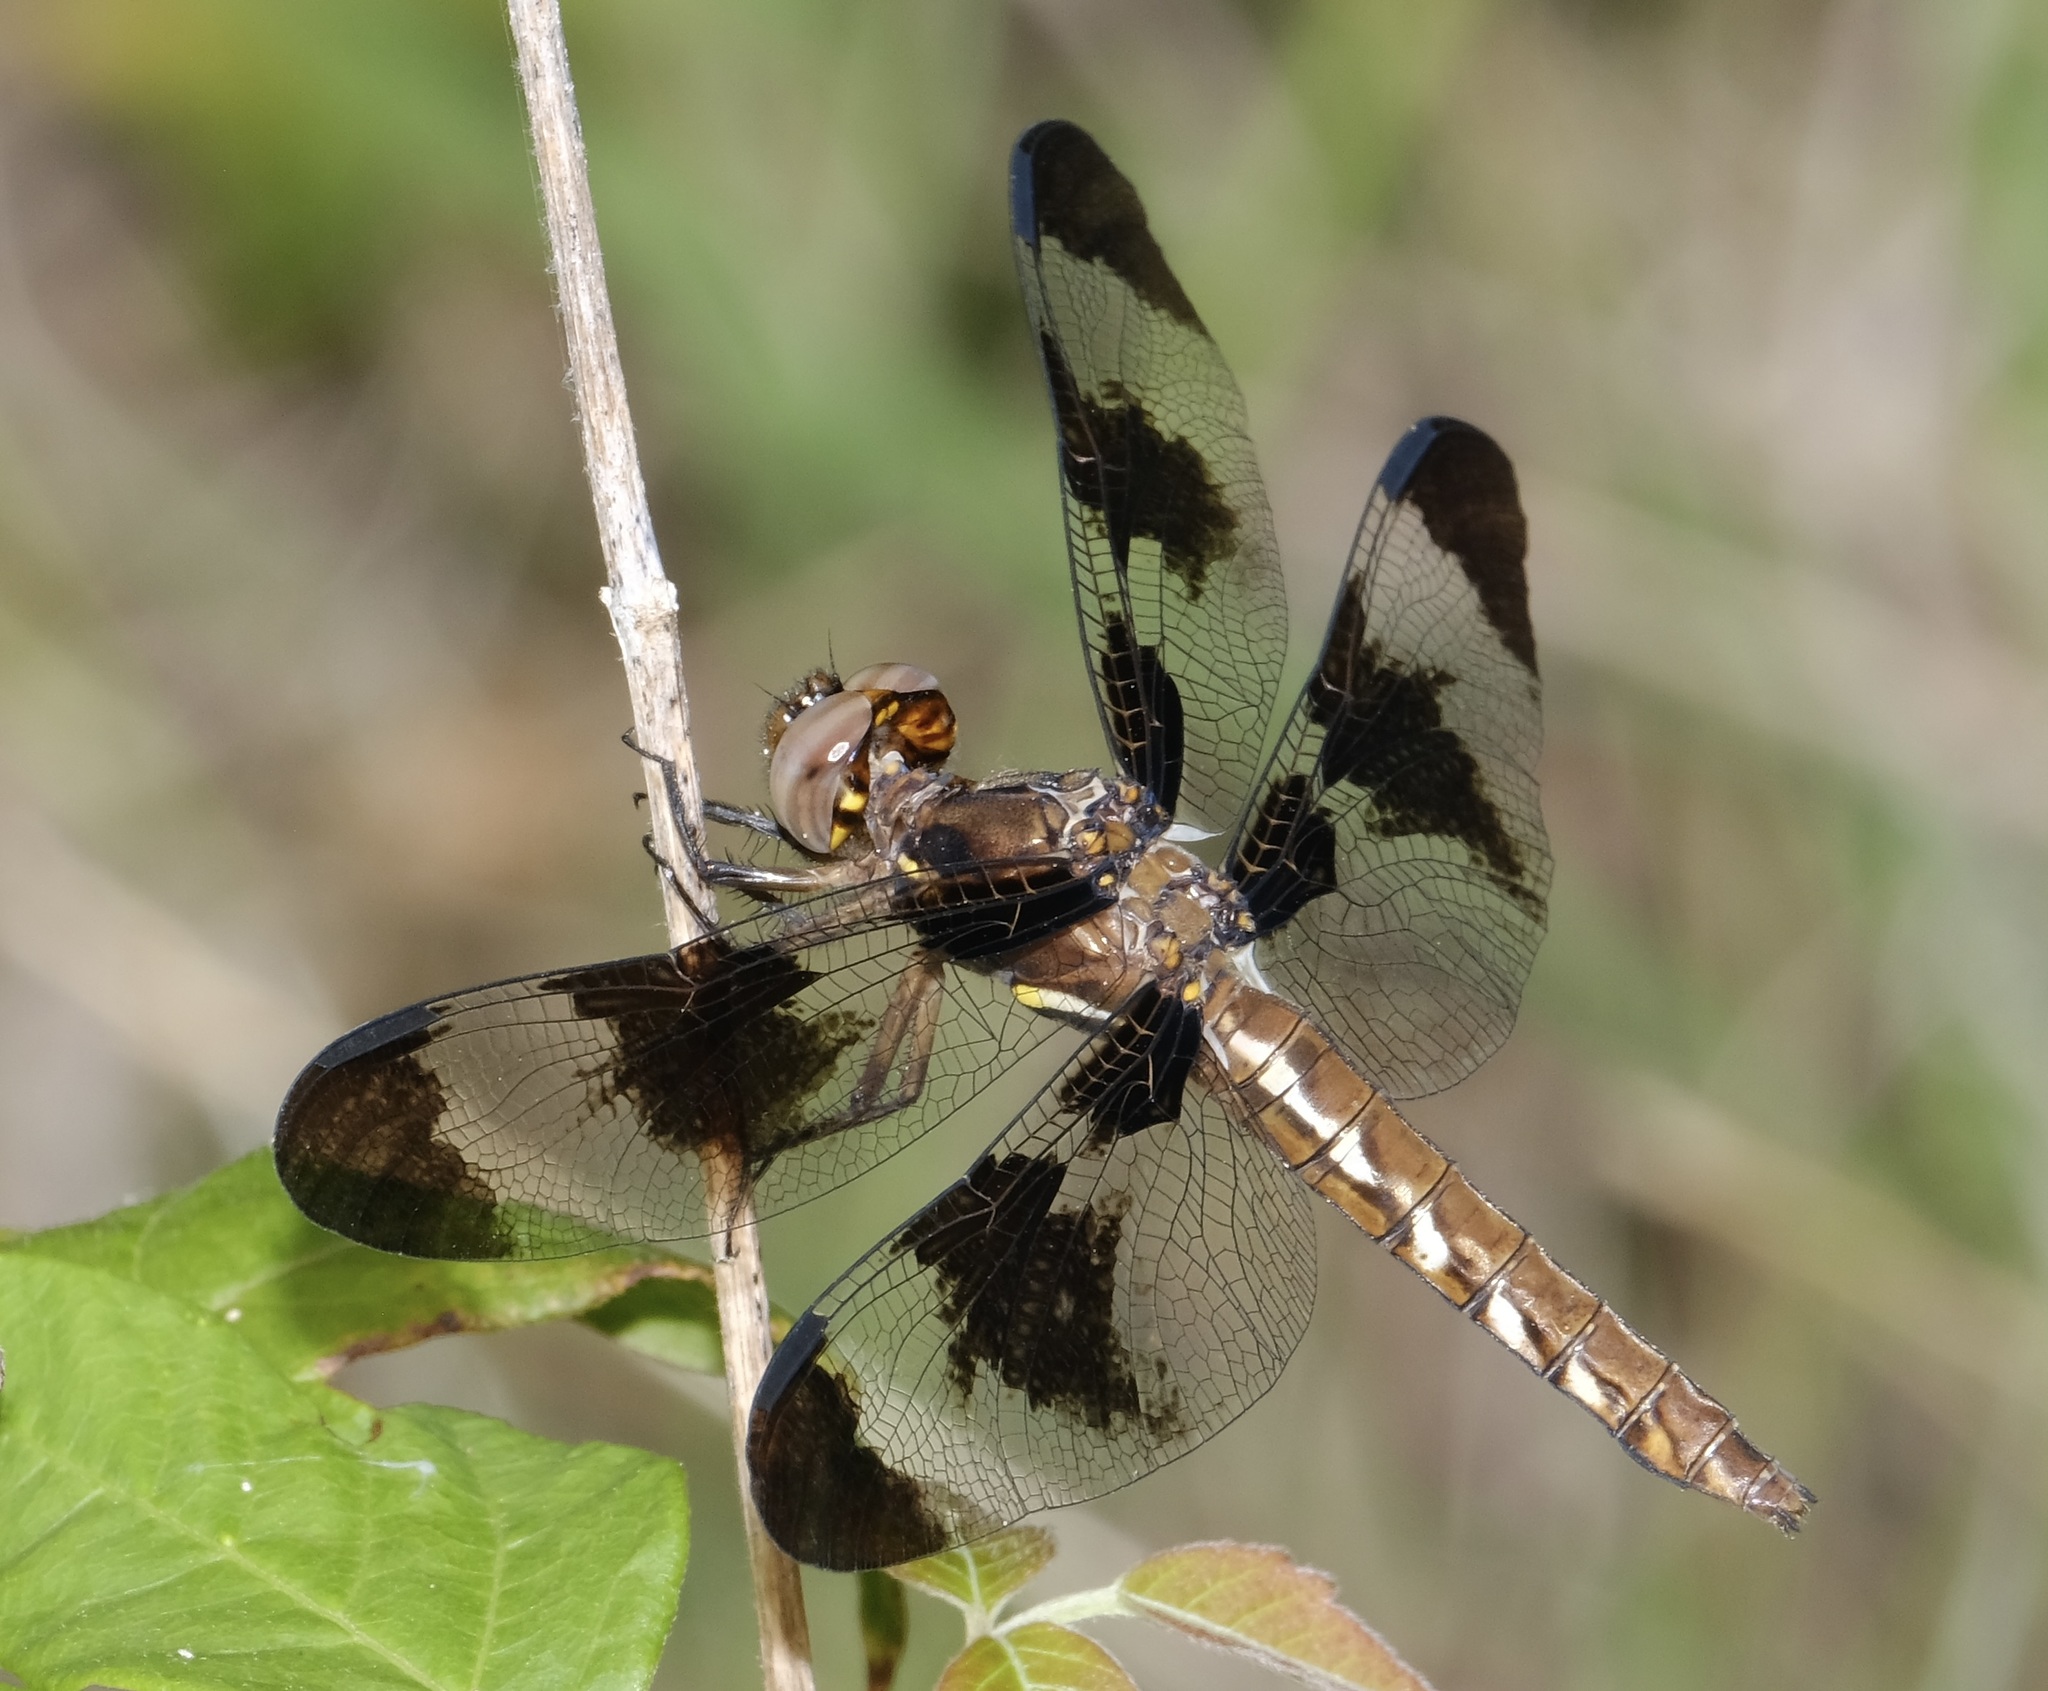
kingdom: Animalia
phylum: Arthropoda
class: Insecta
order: Odonata
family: Libellulidae
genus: Plathemis
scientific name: Plathemis lydia
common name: Common whitetail
